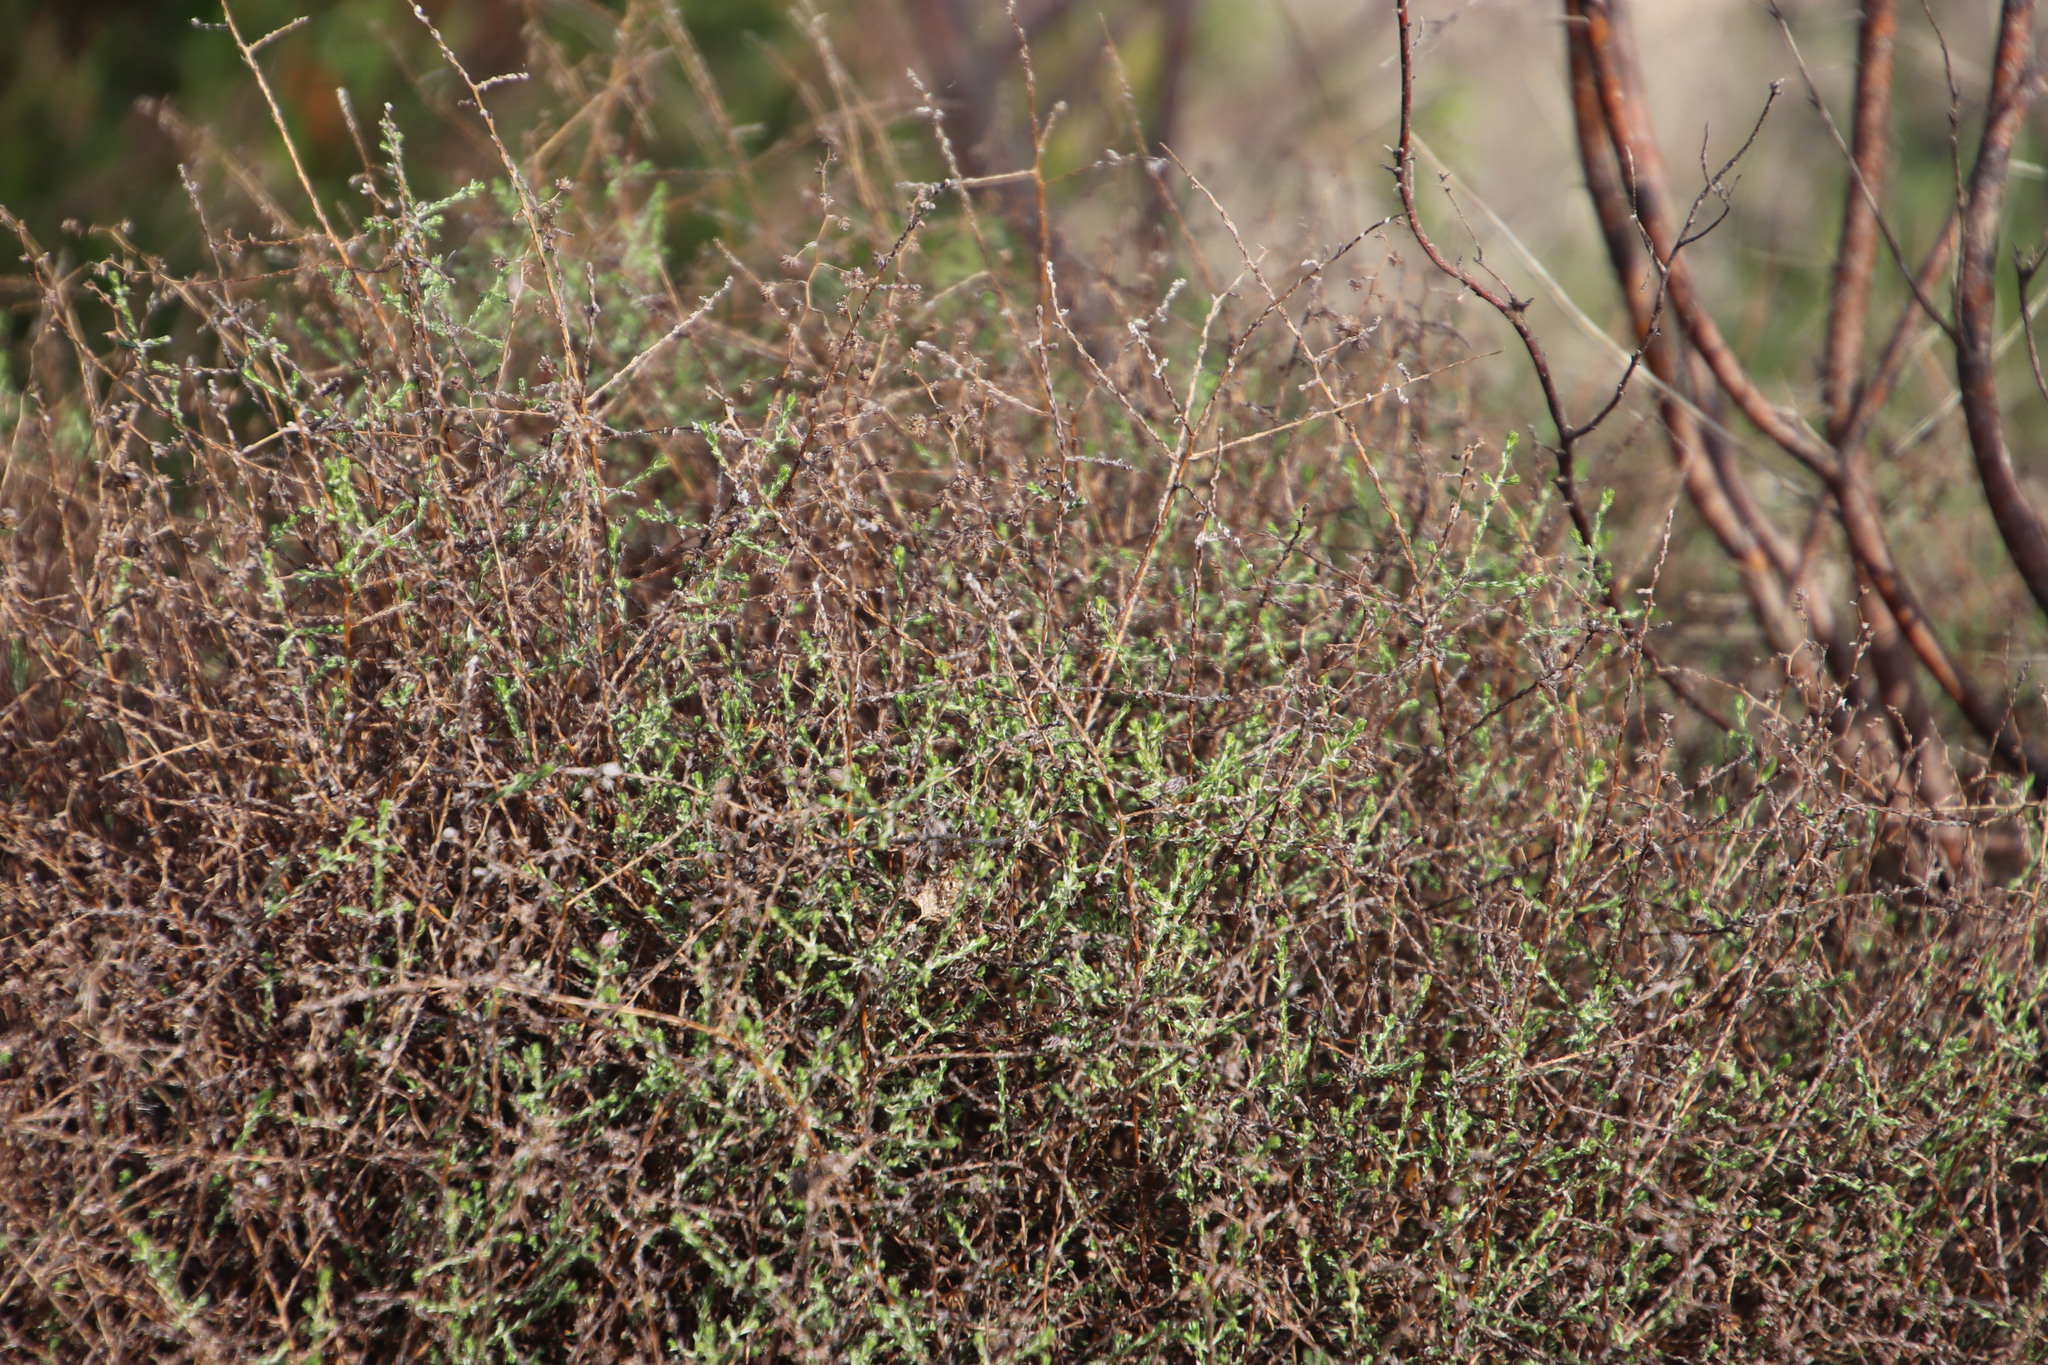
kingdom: Plantae
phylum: Tracheophyta
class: Magnoliopsida
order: Asterales
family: Asteraceae
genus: Myrovernix
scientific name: Myrovernix scaber
